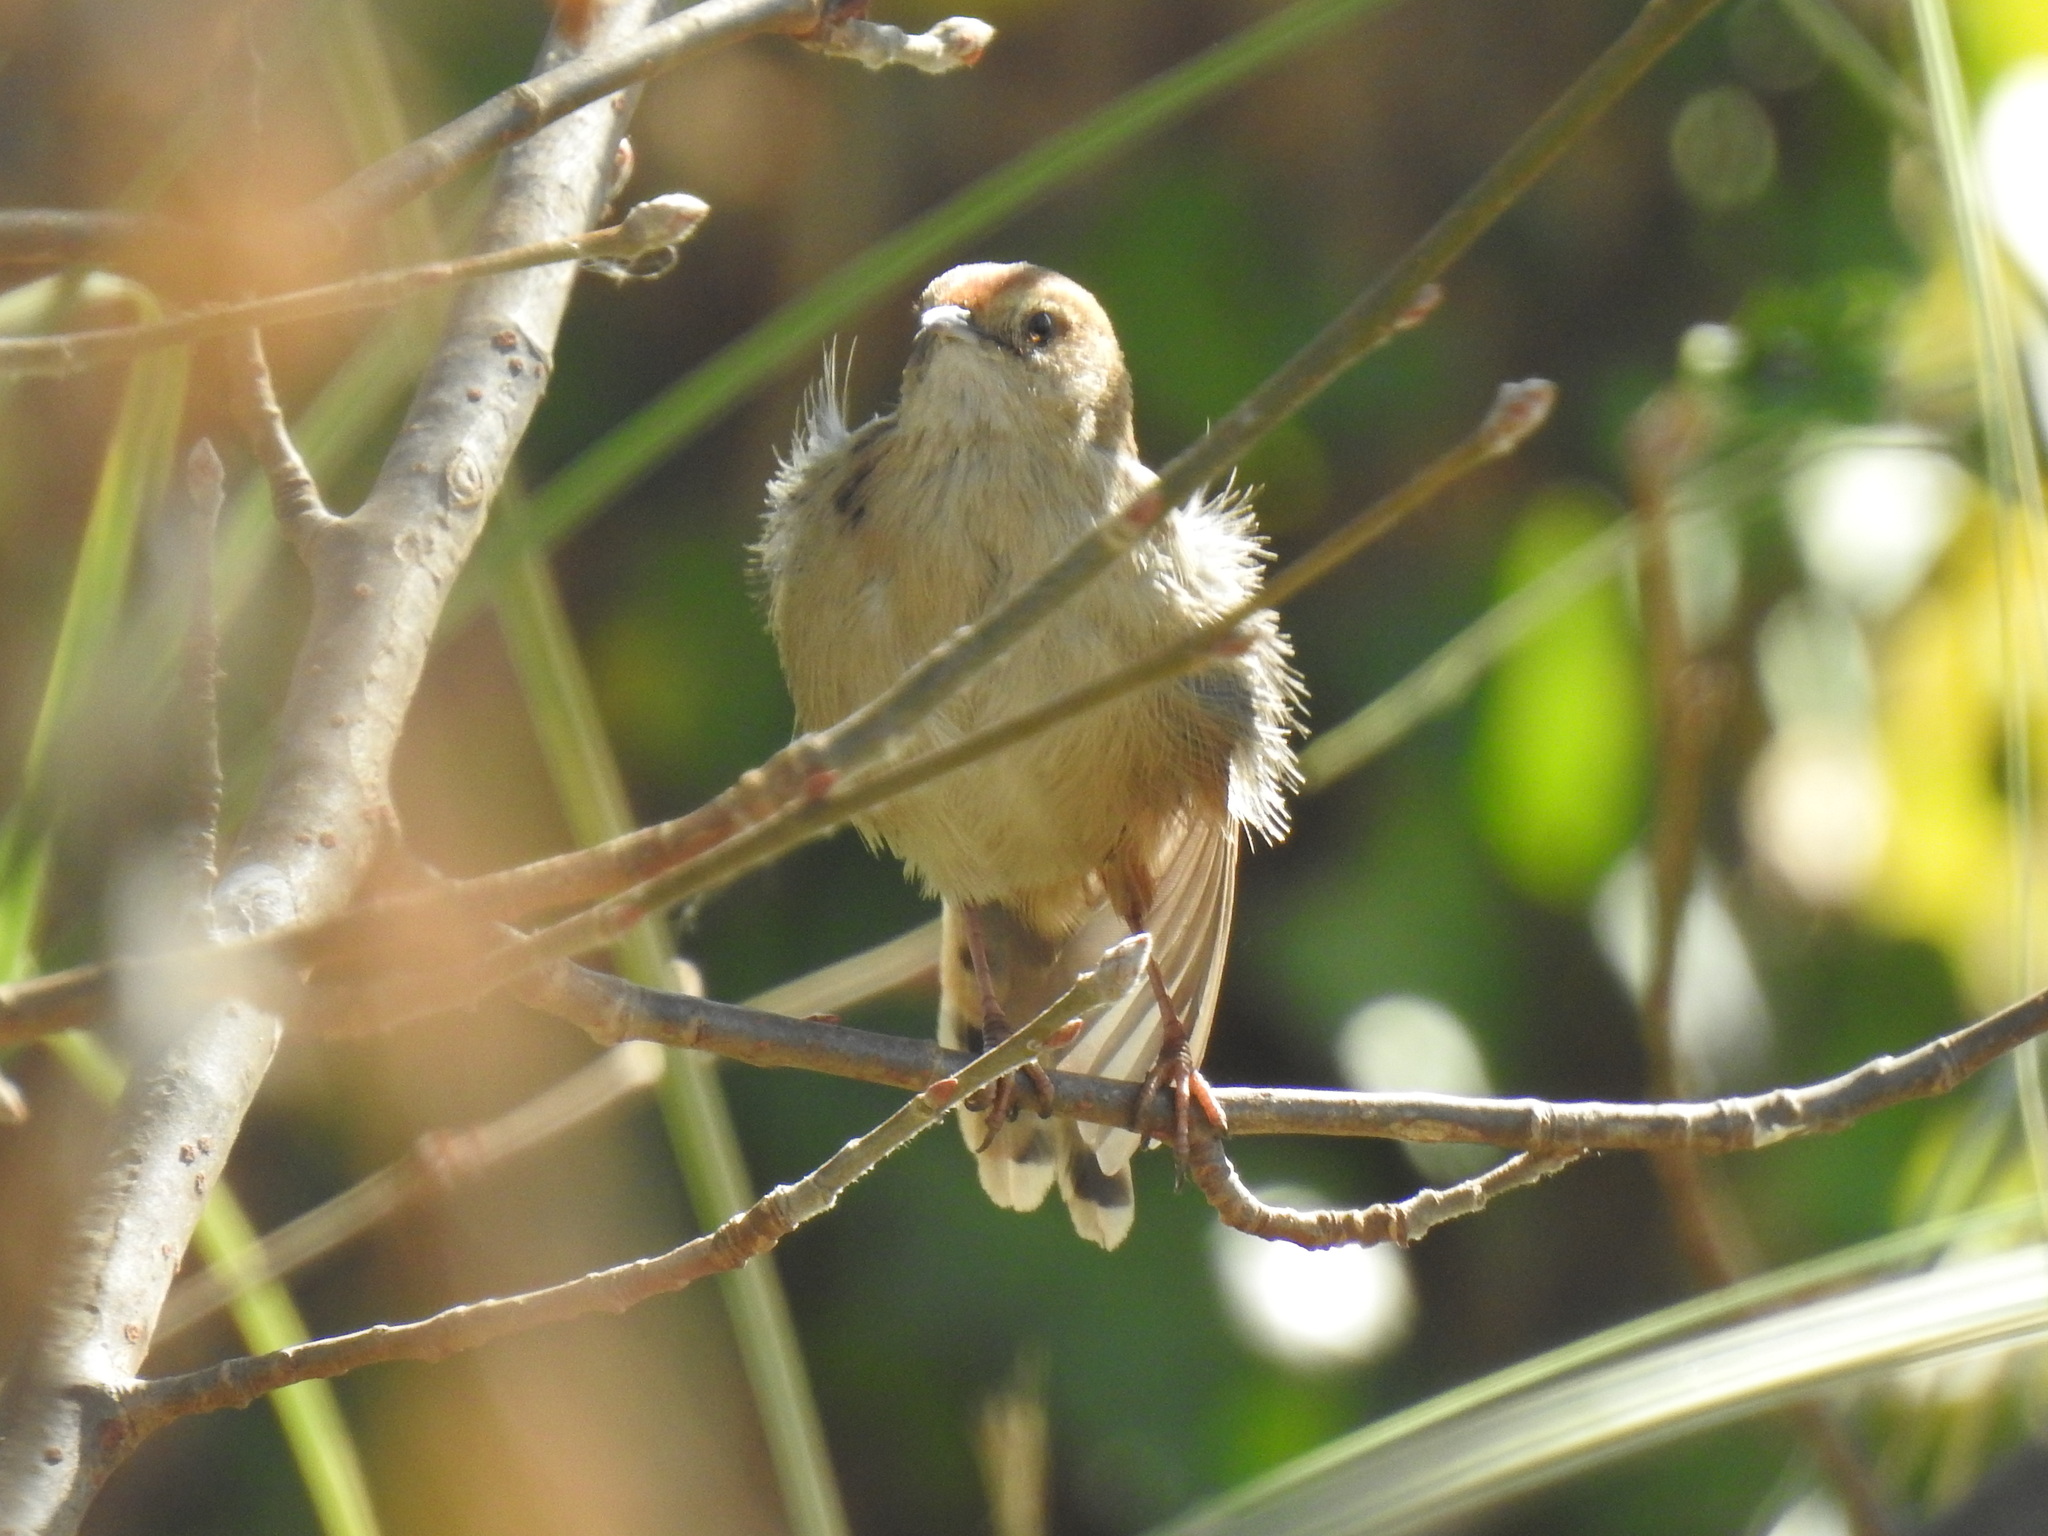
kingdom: Animalia
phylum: Chordata
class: Aves
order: Passeriformes
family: Cisticolidae
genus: Cisticola
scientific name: Cisticola tinniens
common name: Levaillant's cisticola
